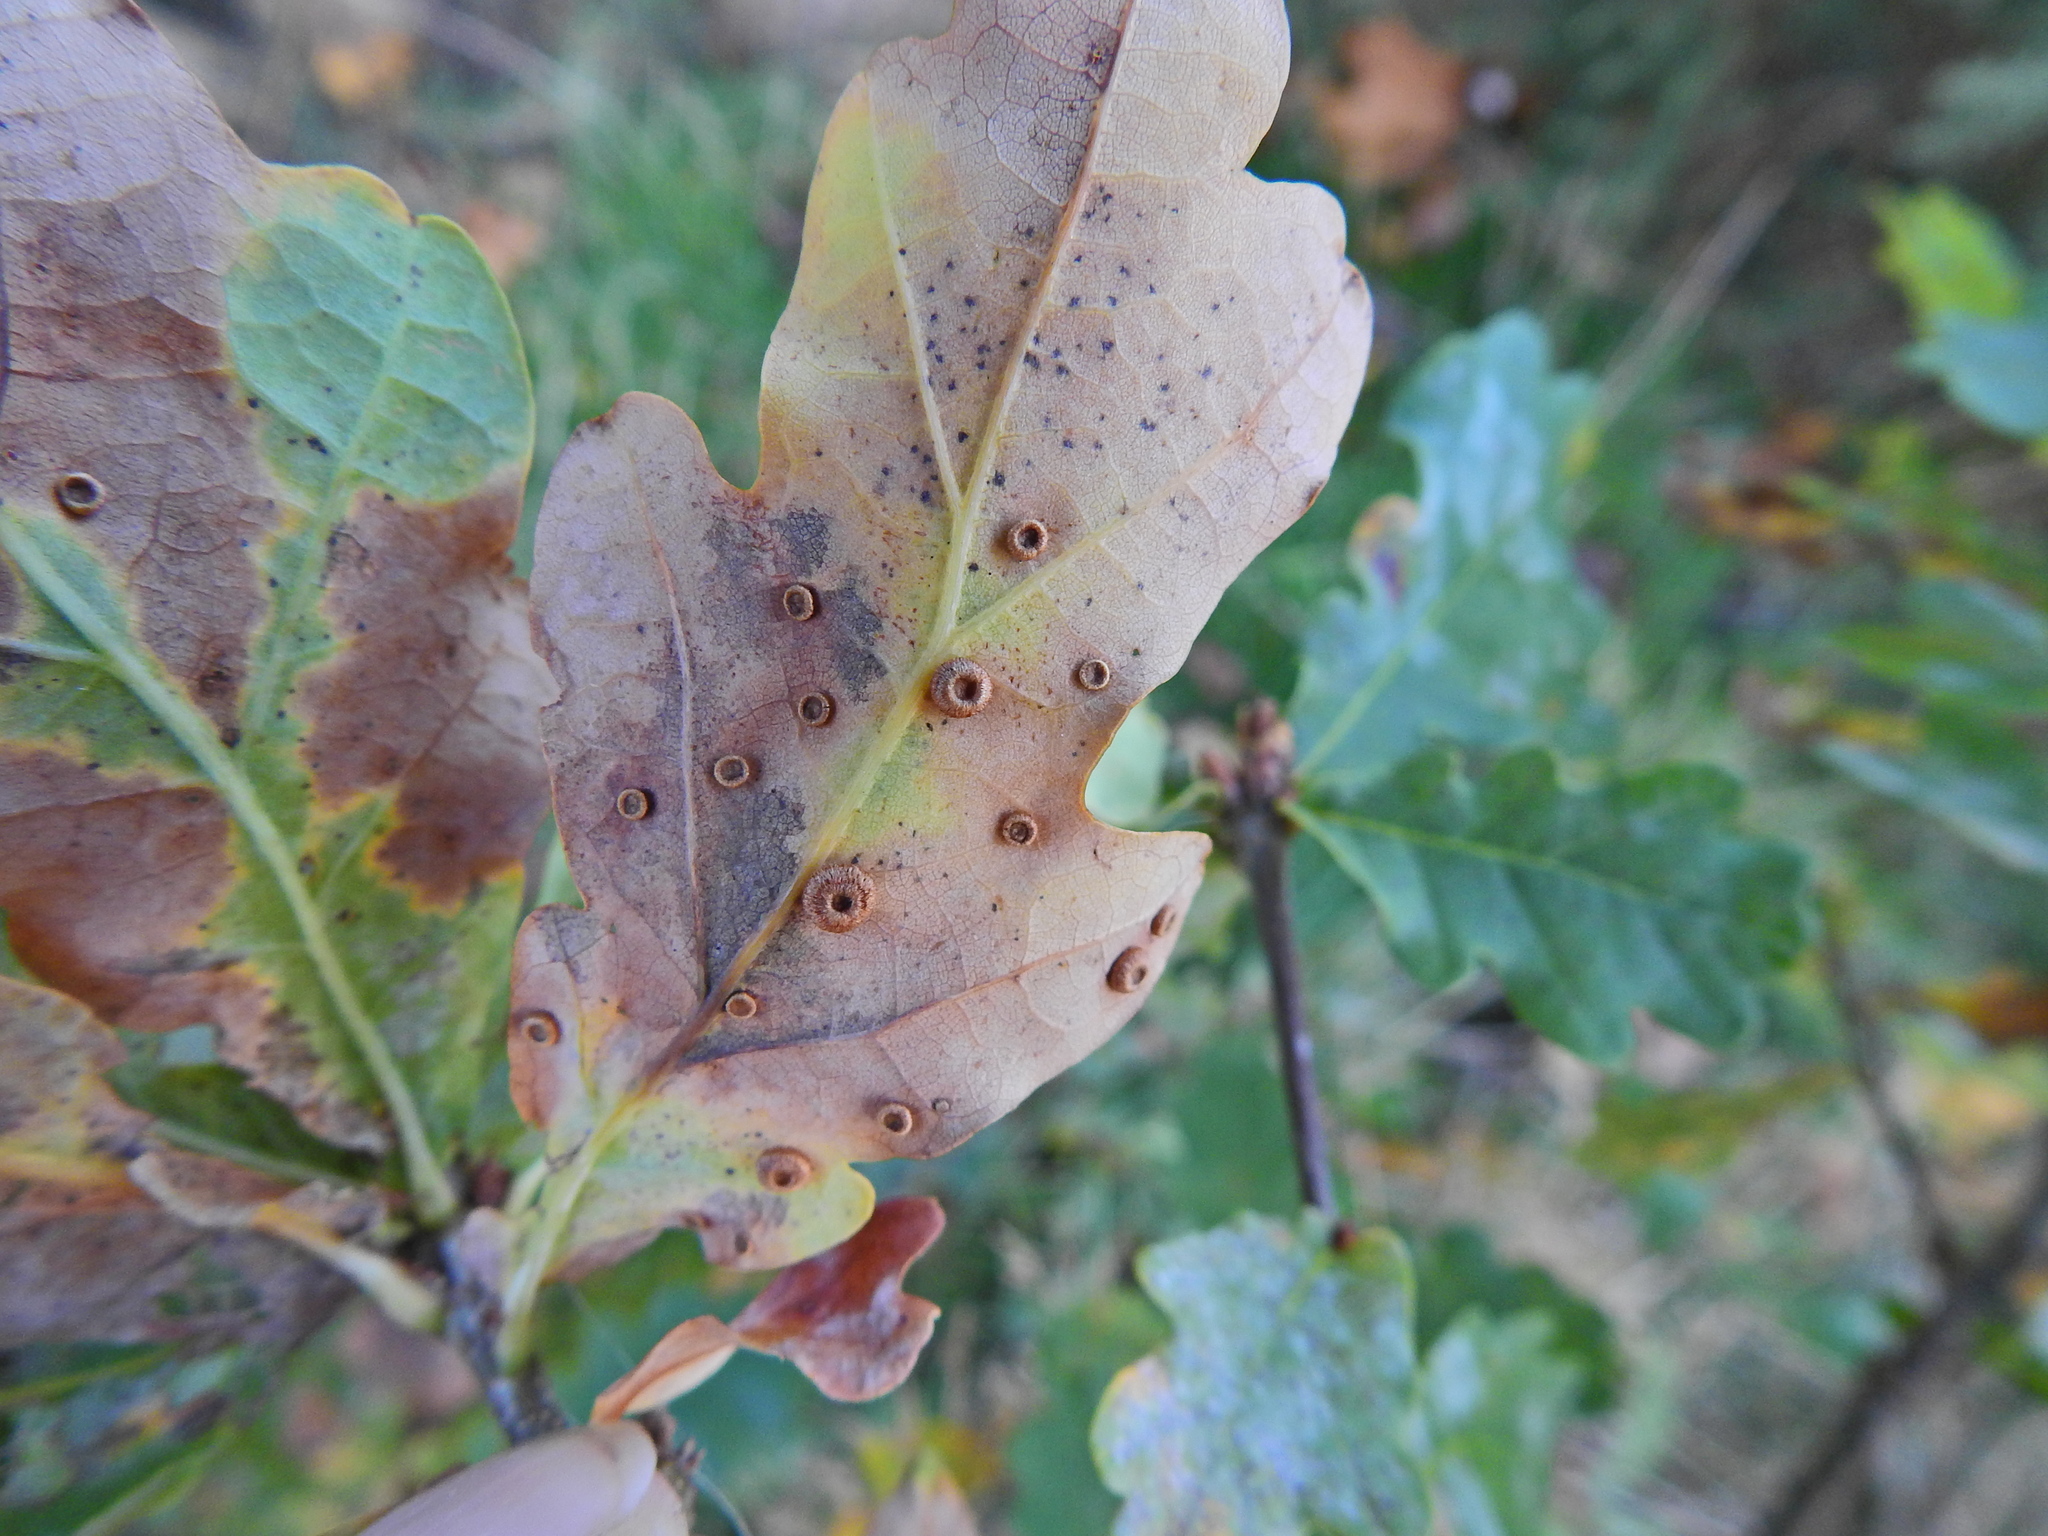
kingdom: Animalia
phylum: Arthropoda
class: Insecta
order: Hymenoptera
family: Cynipidae
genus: Neuroterus
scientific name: Neuroterus numismalis
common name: Silk-button spangle gall
